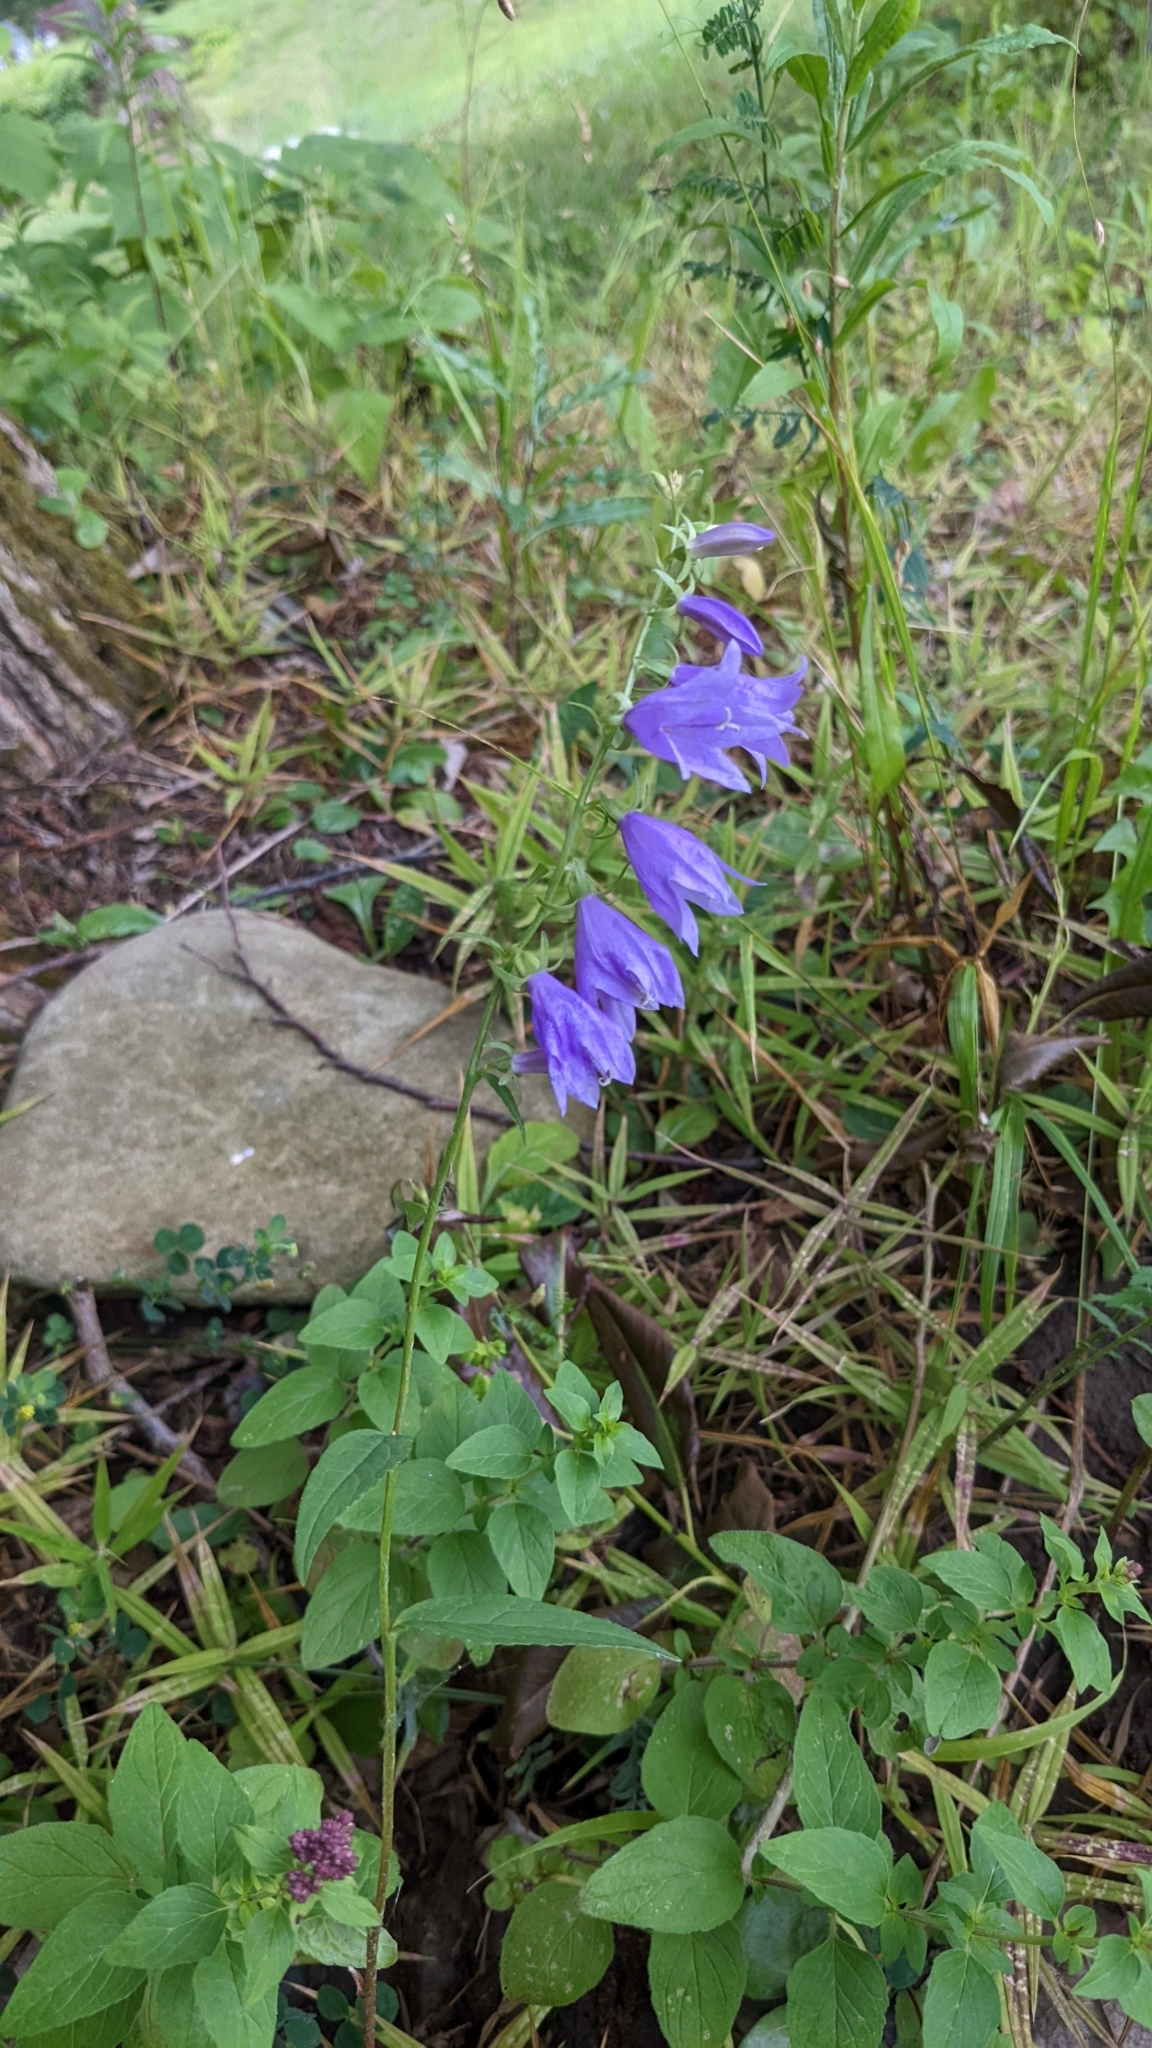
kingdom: Plantae
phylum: Tracheophyta
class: Magnoliopsida
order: Asterales
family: Campanulaceae
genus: Campanula
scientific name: Campanula rapunculoides
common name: Creeping bellflower
